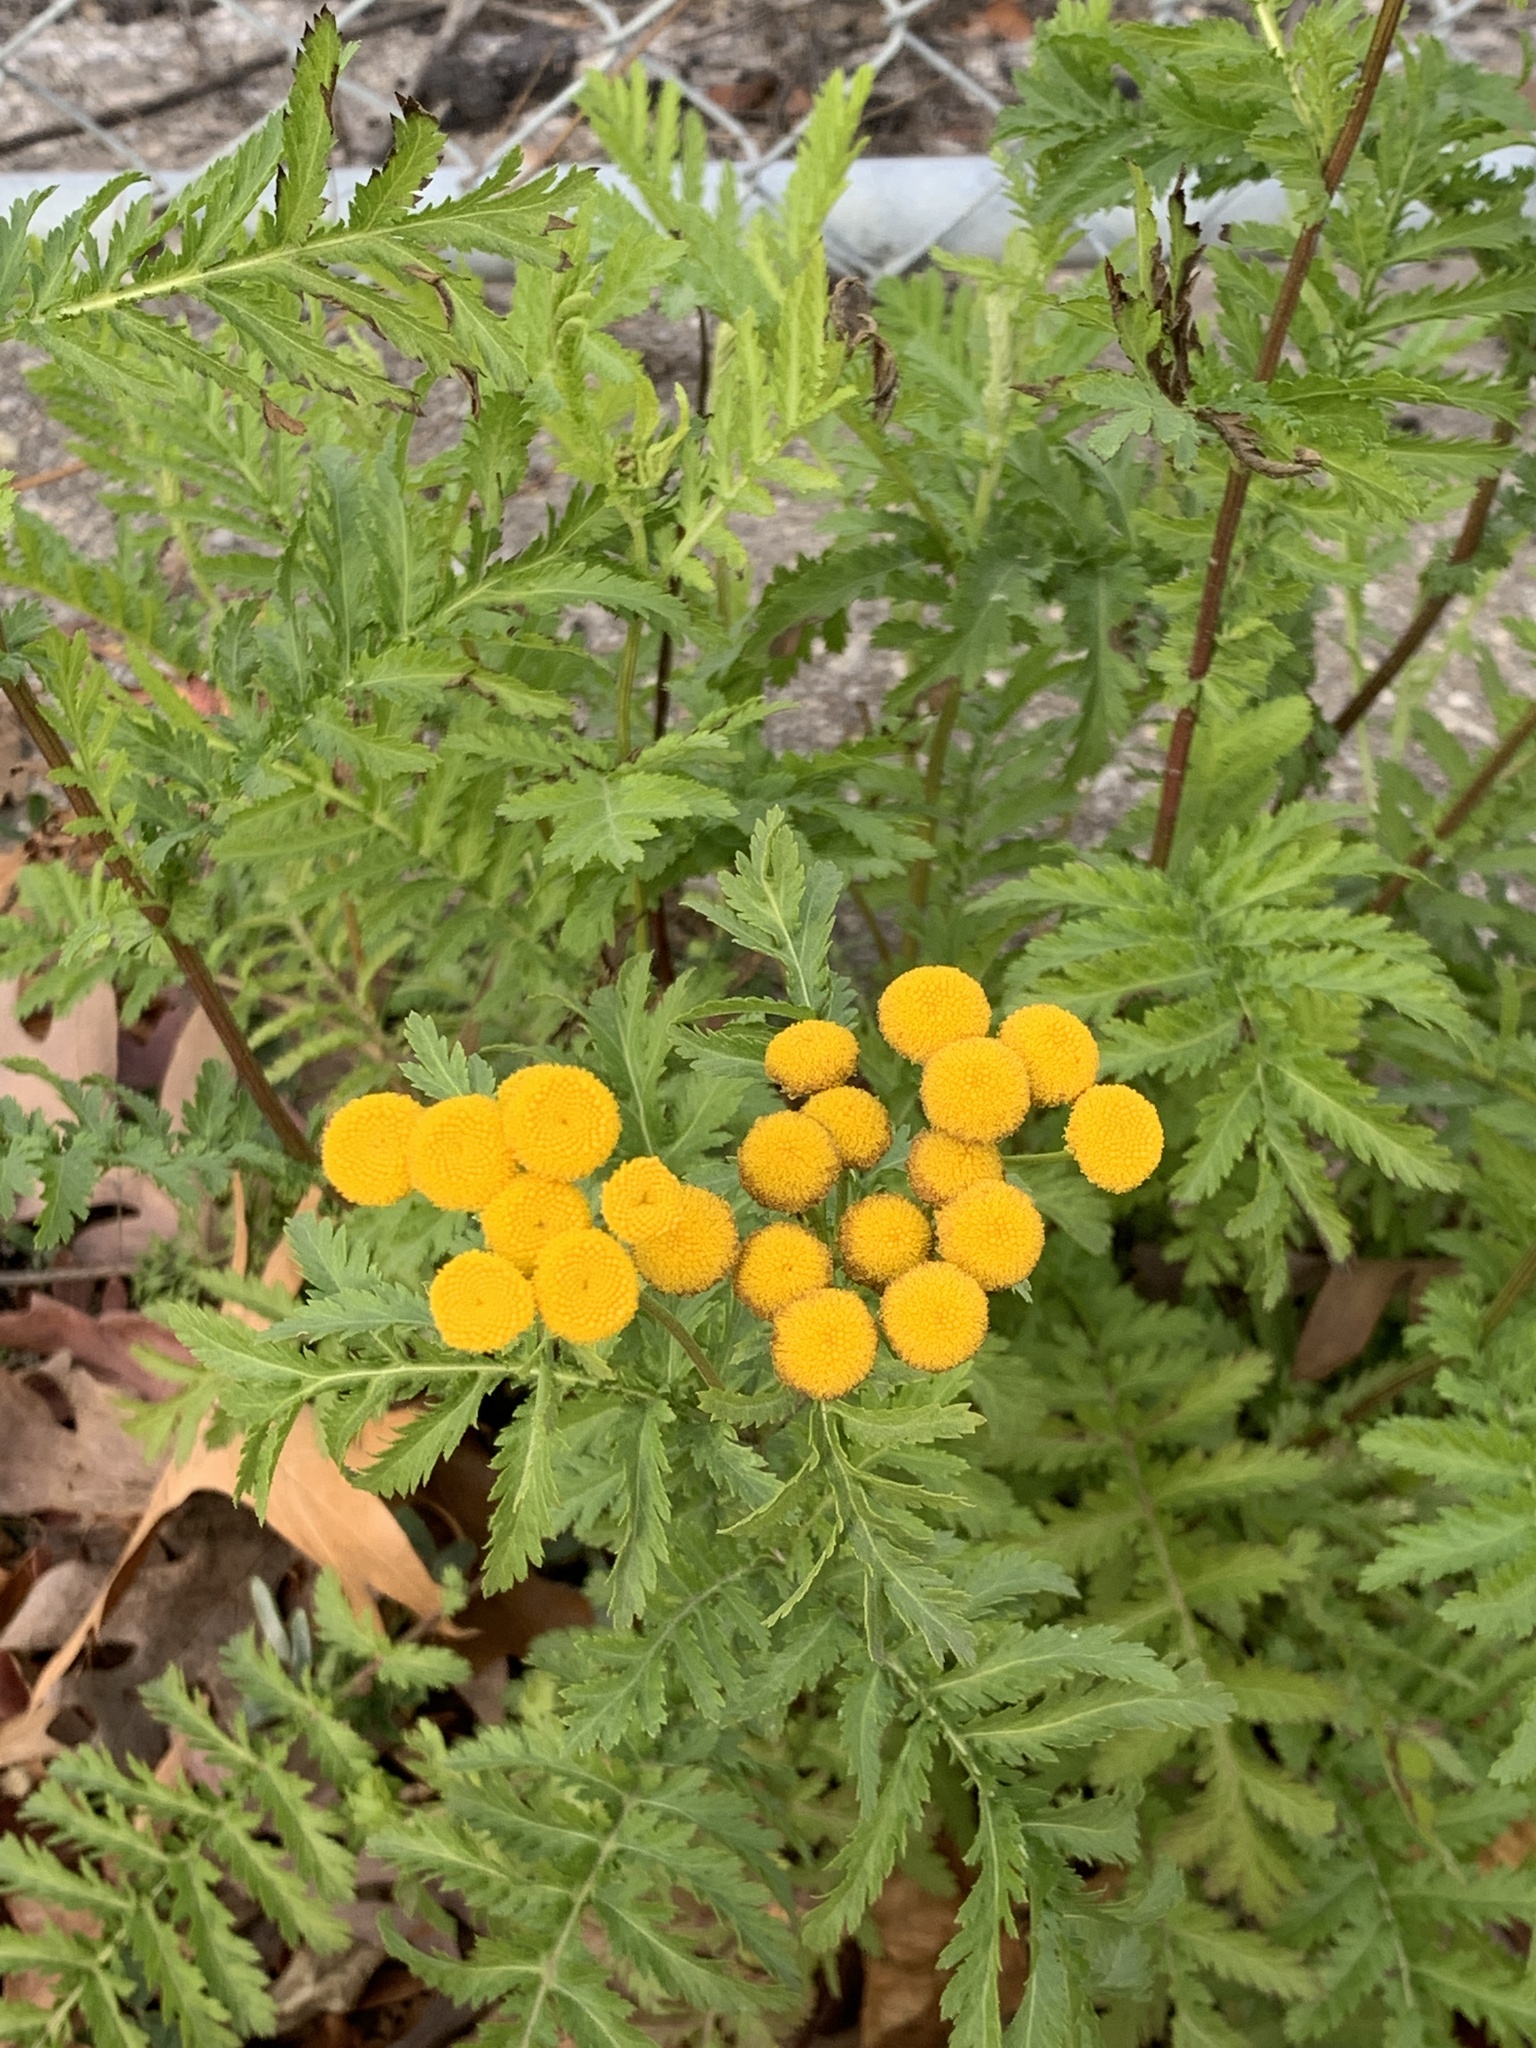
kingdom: Plantae
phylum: Tracheophyta
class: Magnoliopsida
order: Asterales
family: Asteraceae
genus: Tanacetum
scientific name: Tanacetum vulgare
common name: Common tansy
